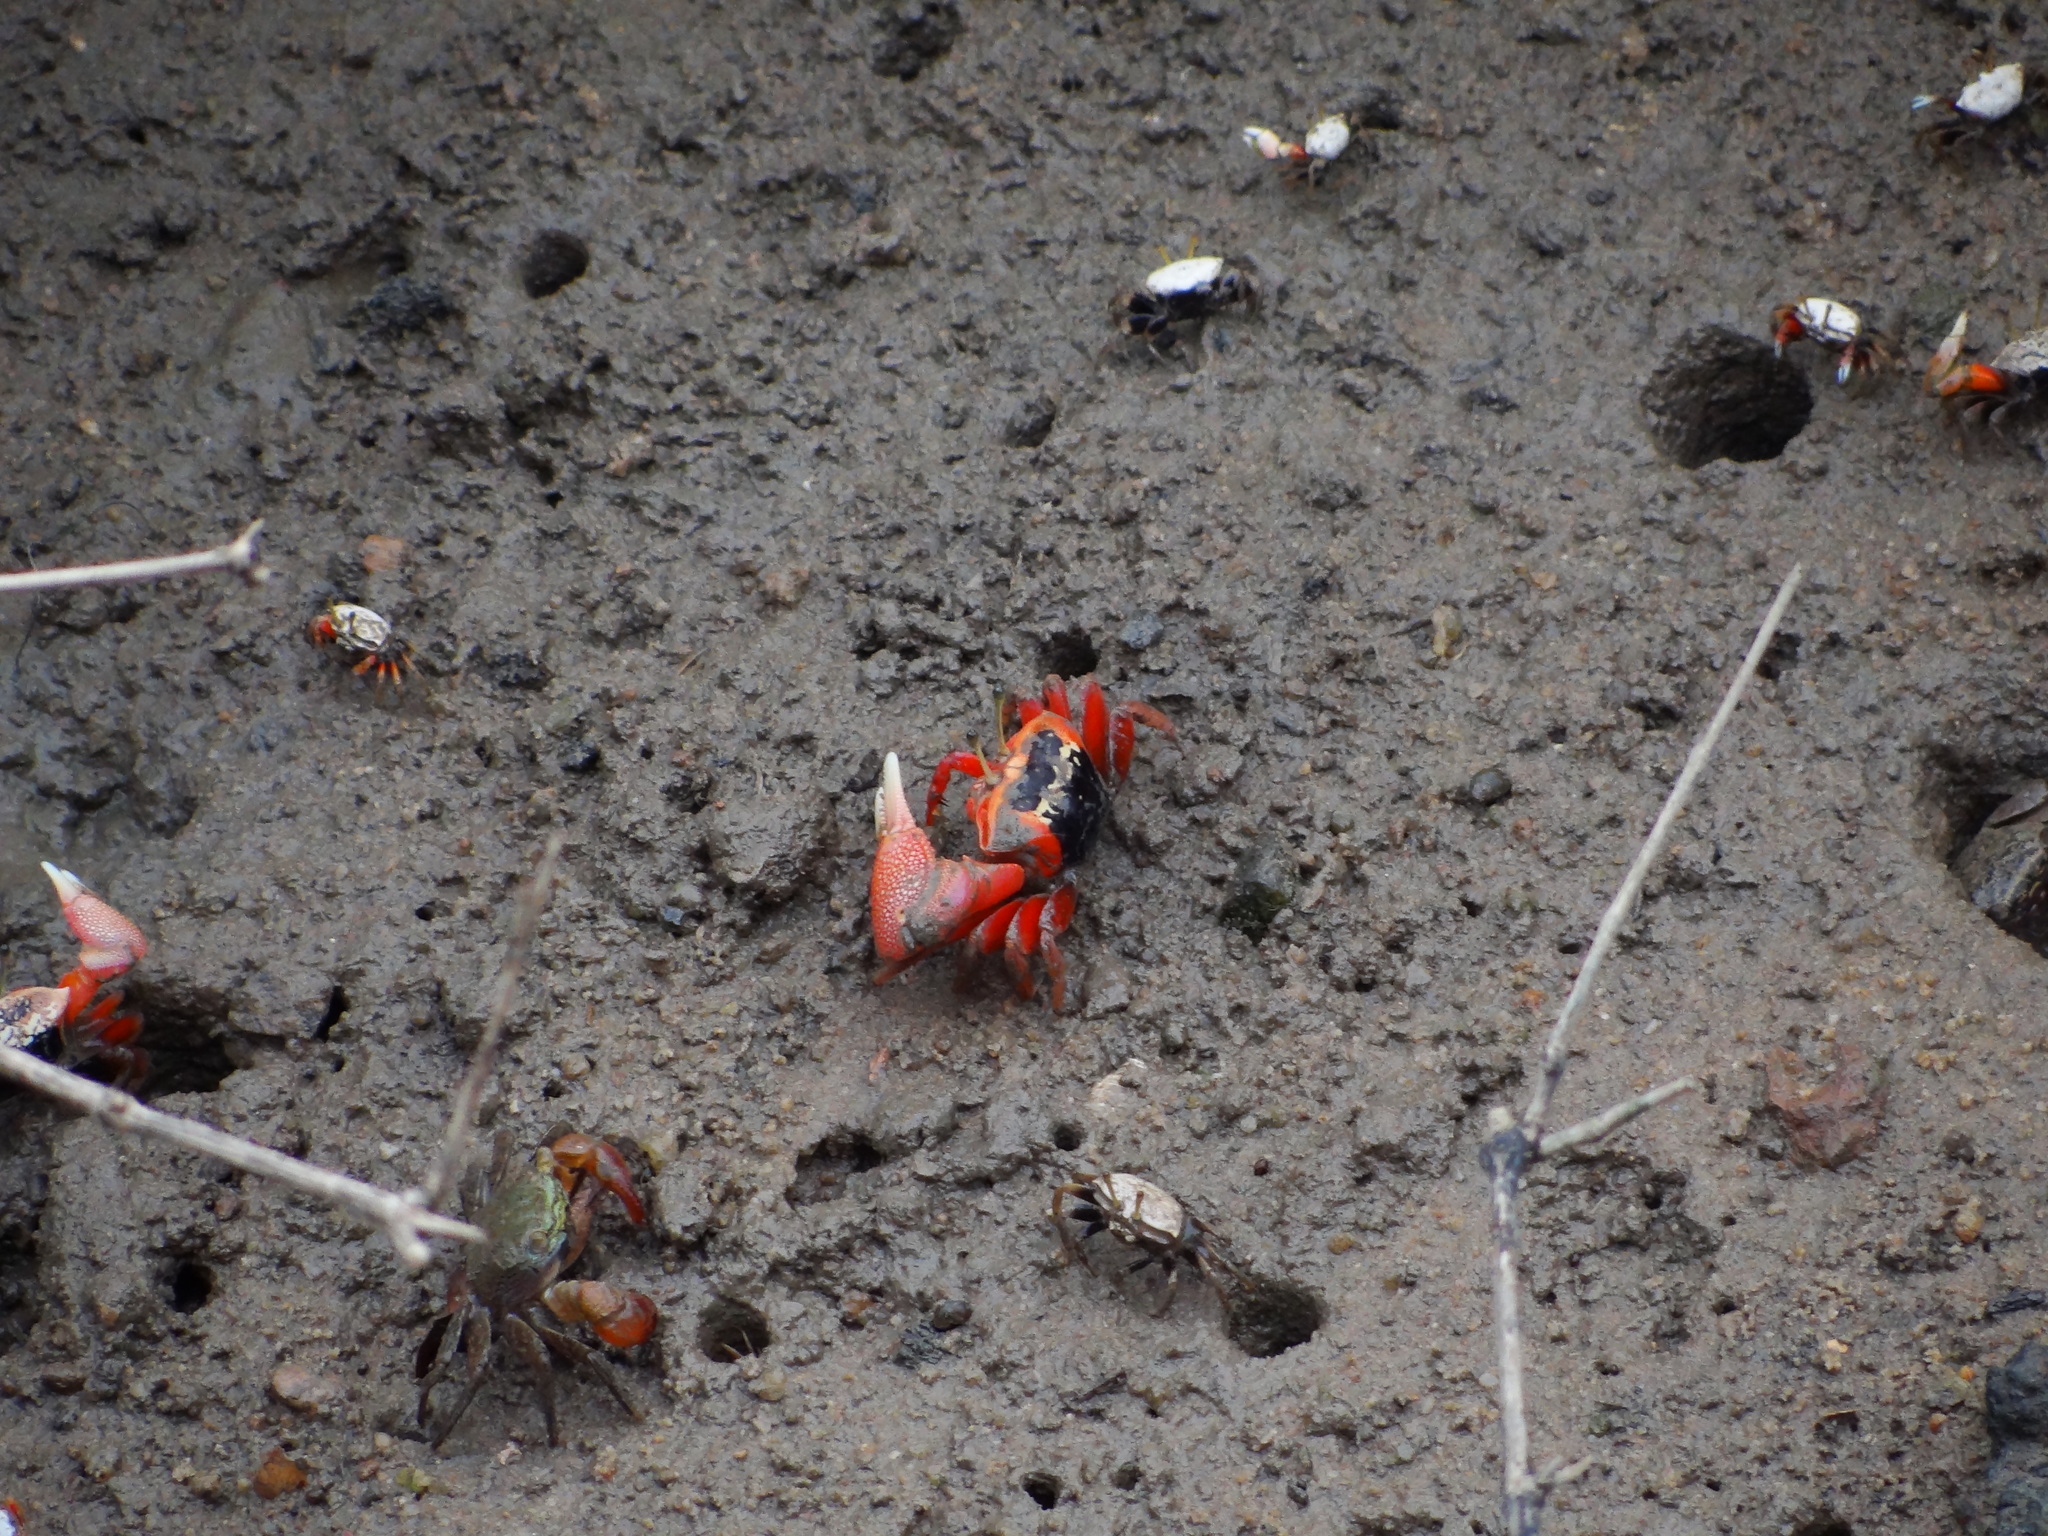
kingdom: Animalia
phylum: Arthropoda
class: Malacostraca
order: Decapoda
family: Ocypodidae
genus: Tubuca
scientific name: Tubuca arcuata
